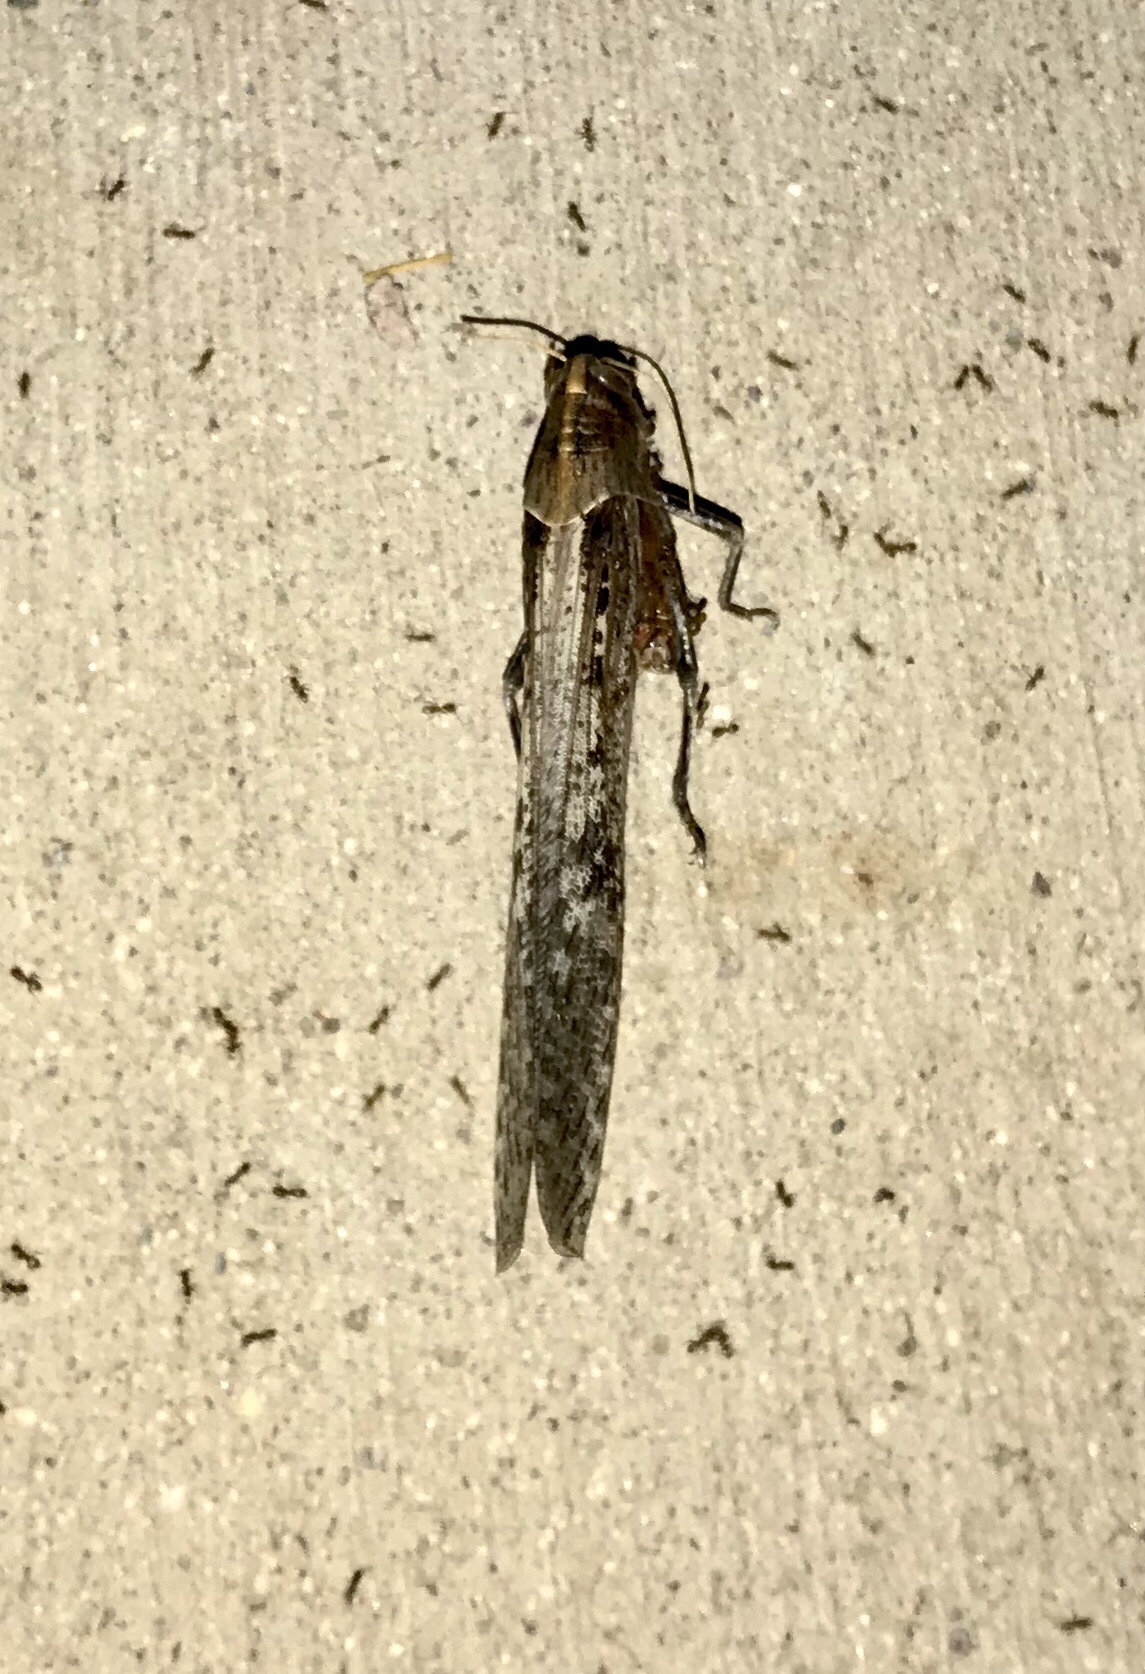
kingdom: Animalia
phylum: Arthropoda
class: Insecta
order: Orthoptera
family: Acrididae
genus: Schistocerca
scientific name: Schistocerca nitens
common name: Vagrant grasshopper
